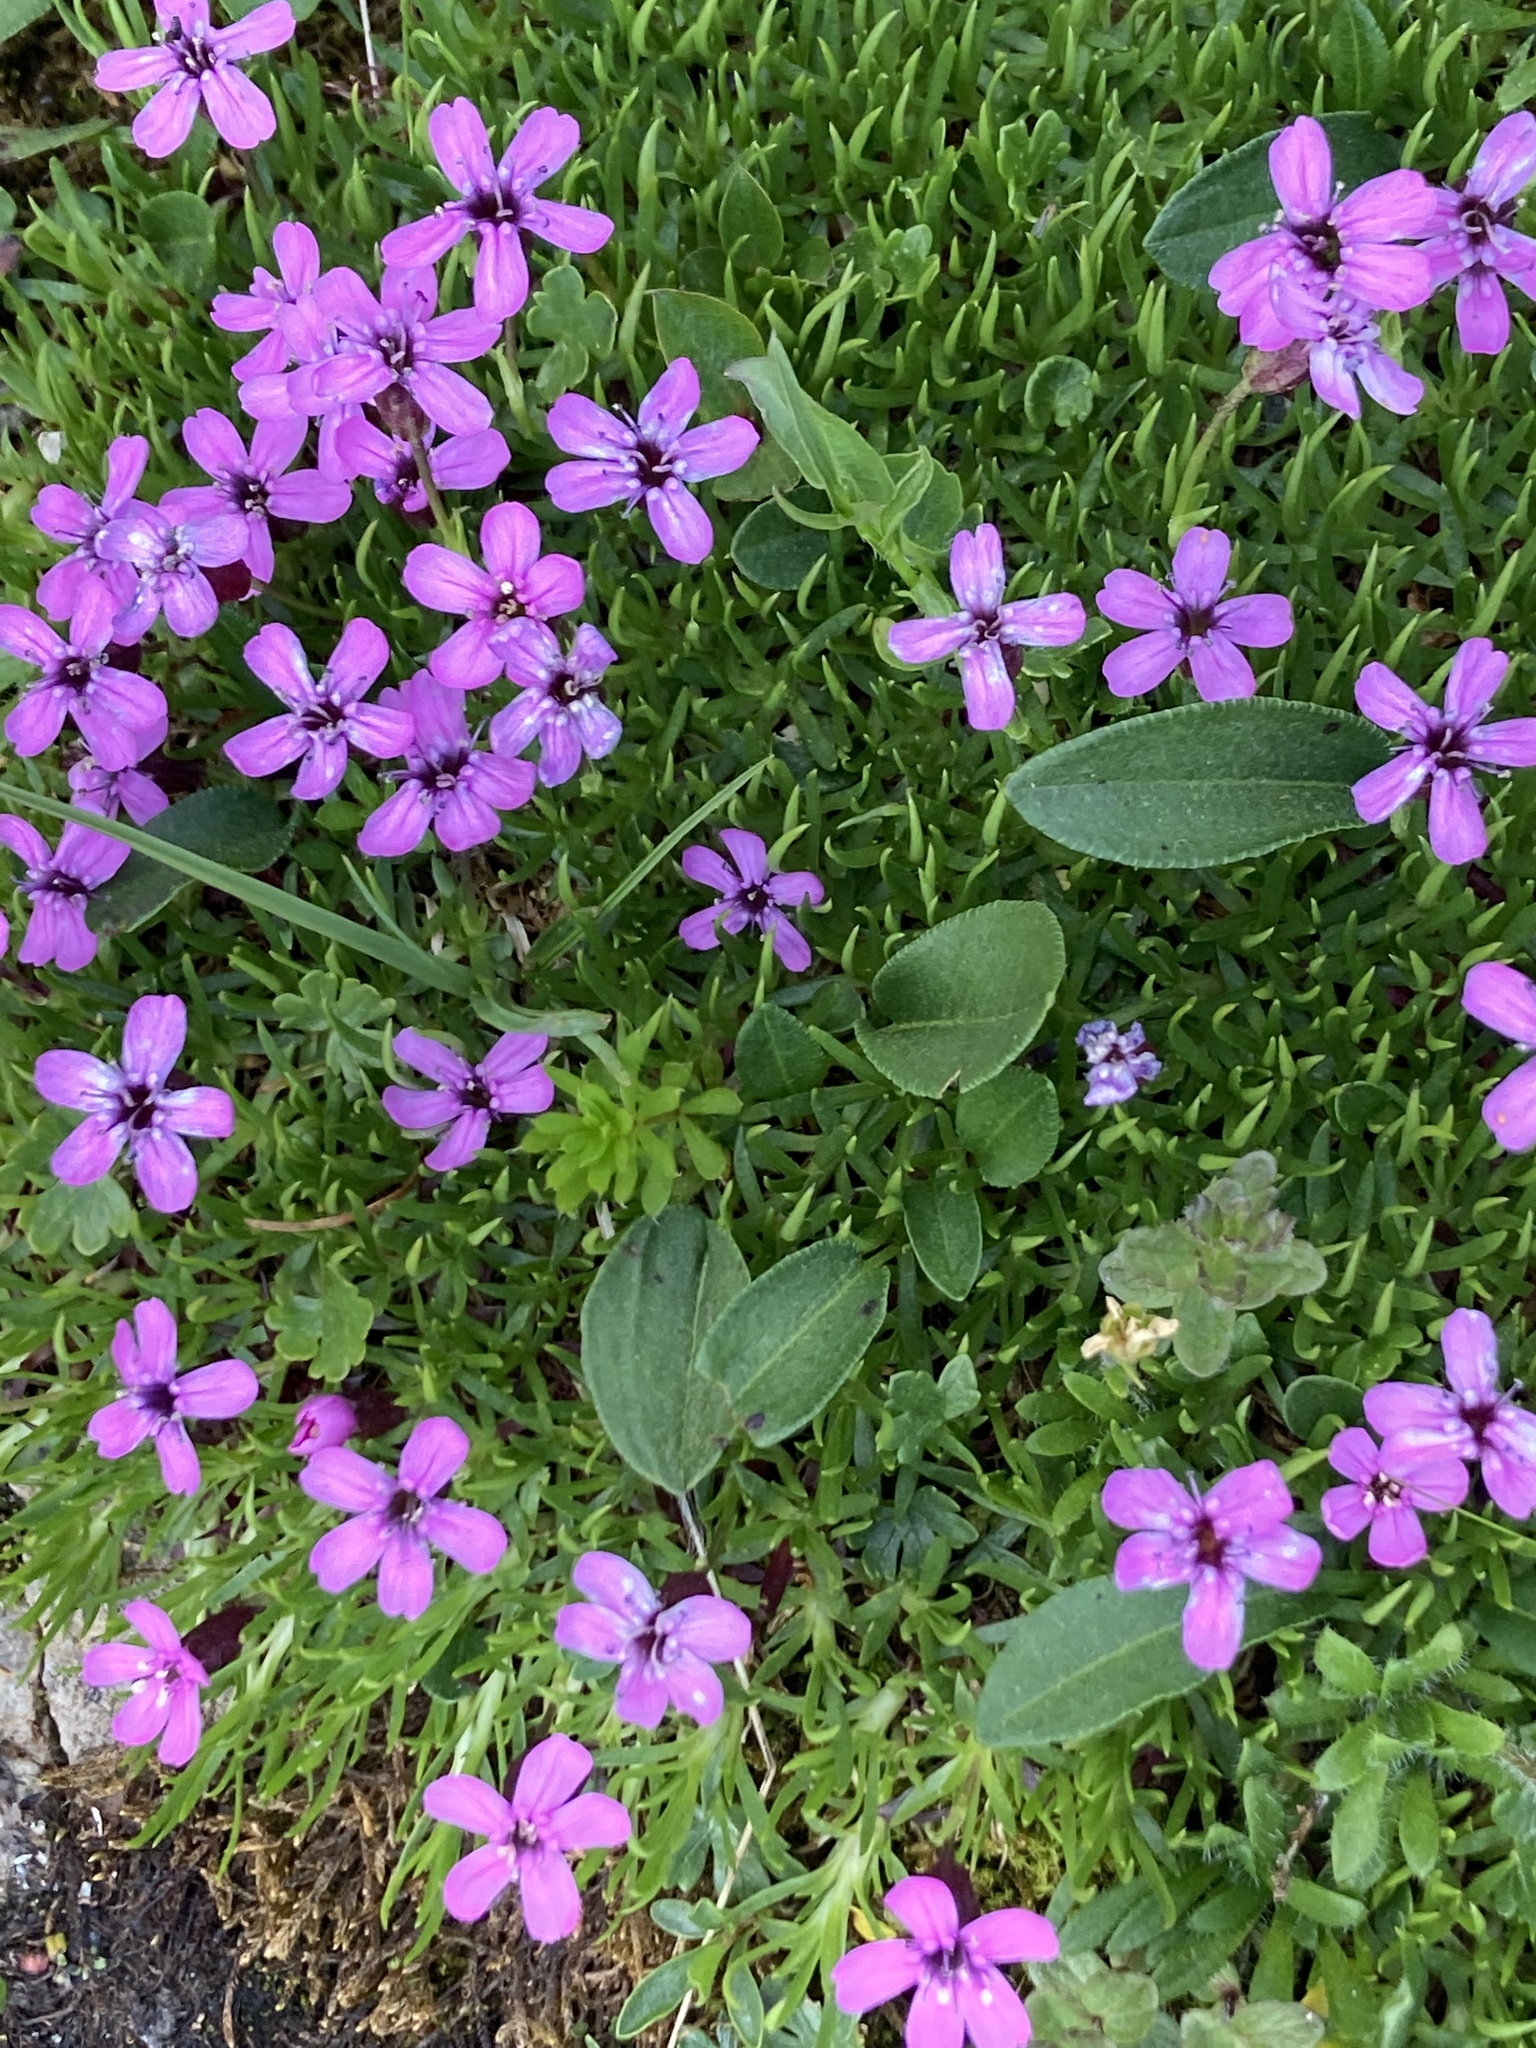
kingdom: Plantae
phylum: Tracheophyta
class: Magnoliopsida
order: Caryophyllales
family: Caryophyllaceae
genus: Silene
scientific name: Silene acaulis
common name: Moss campion
